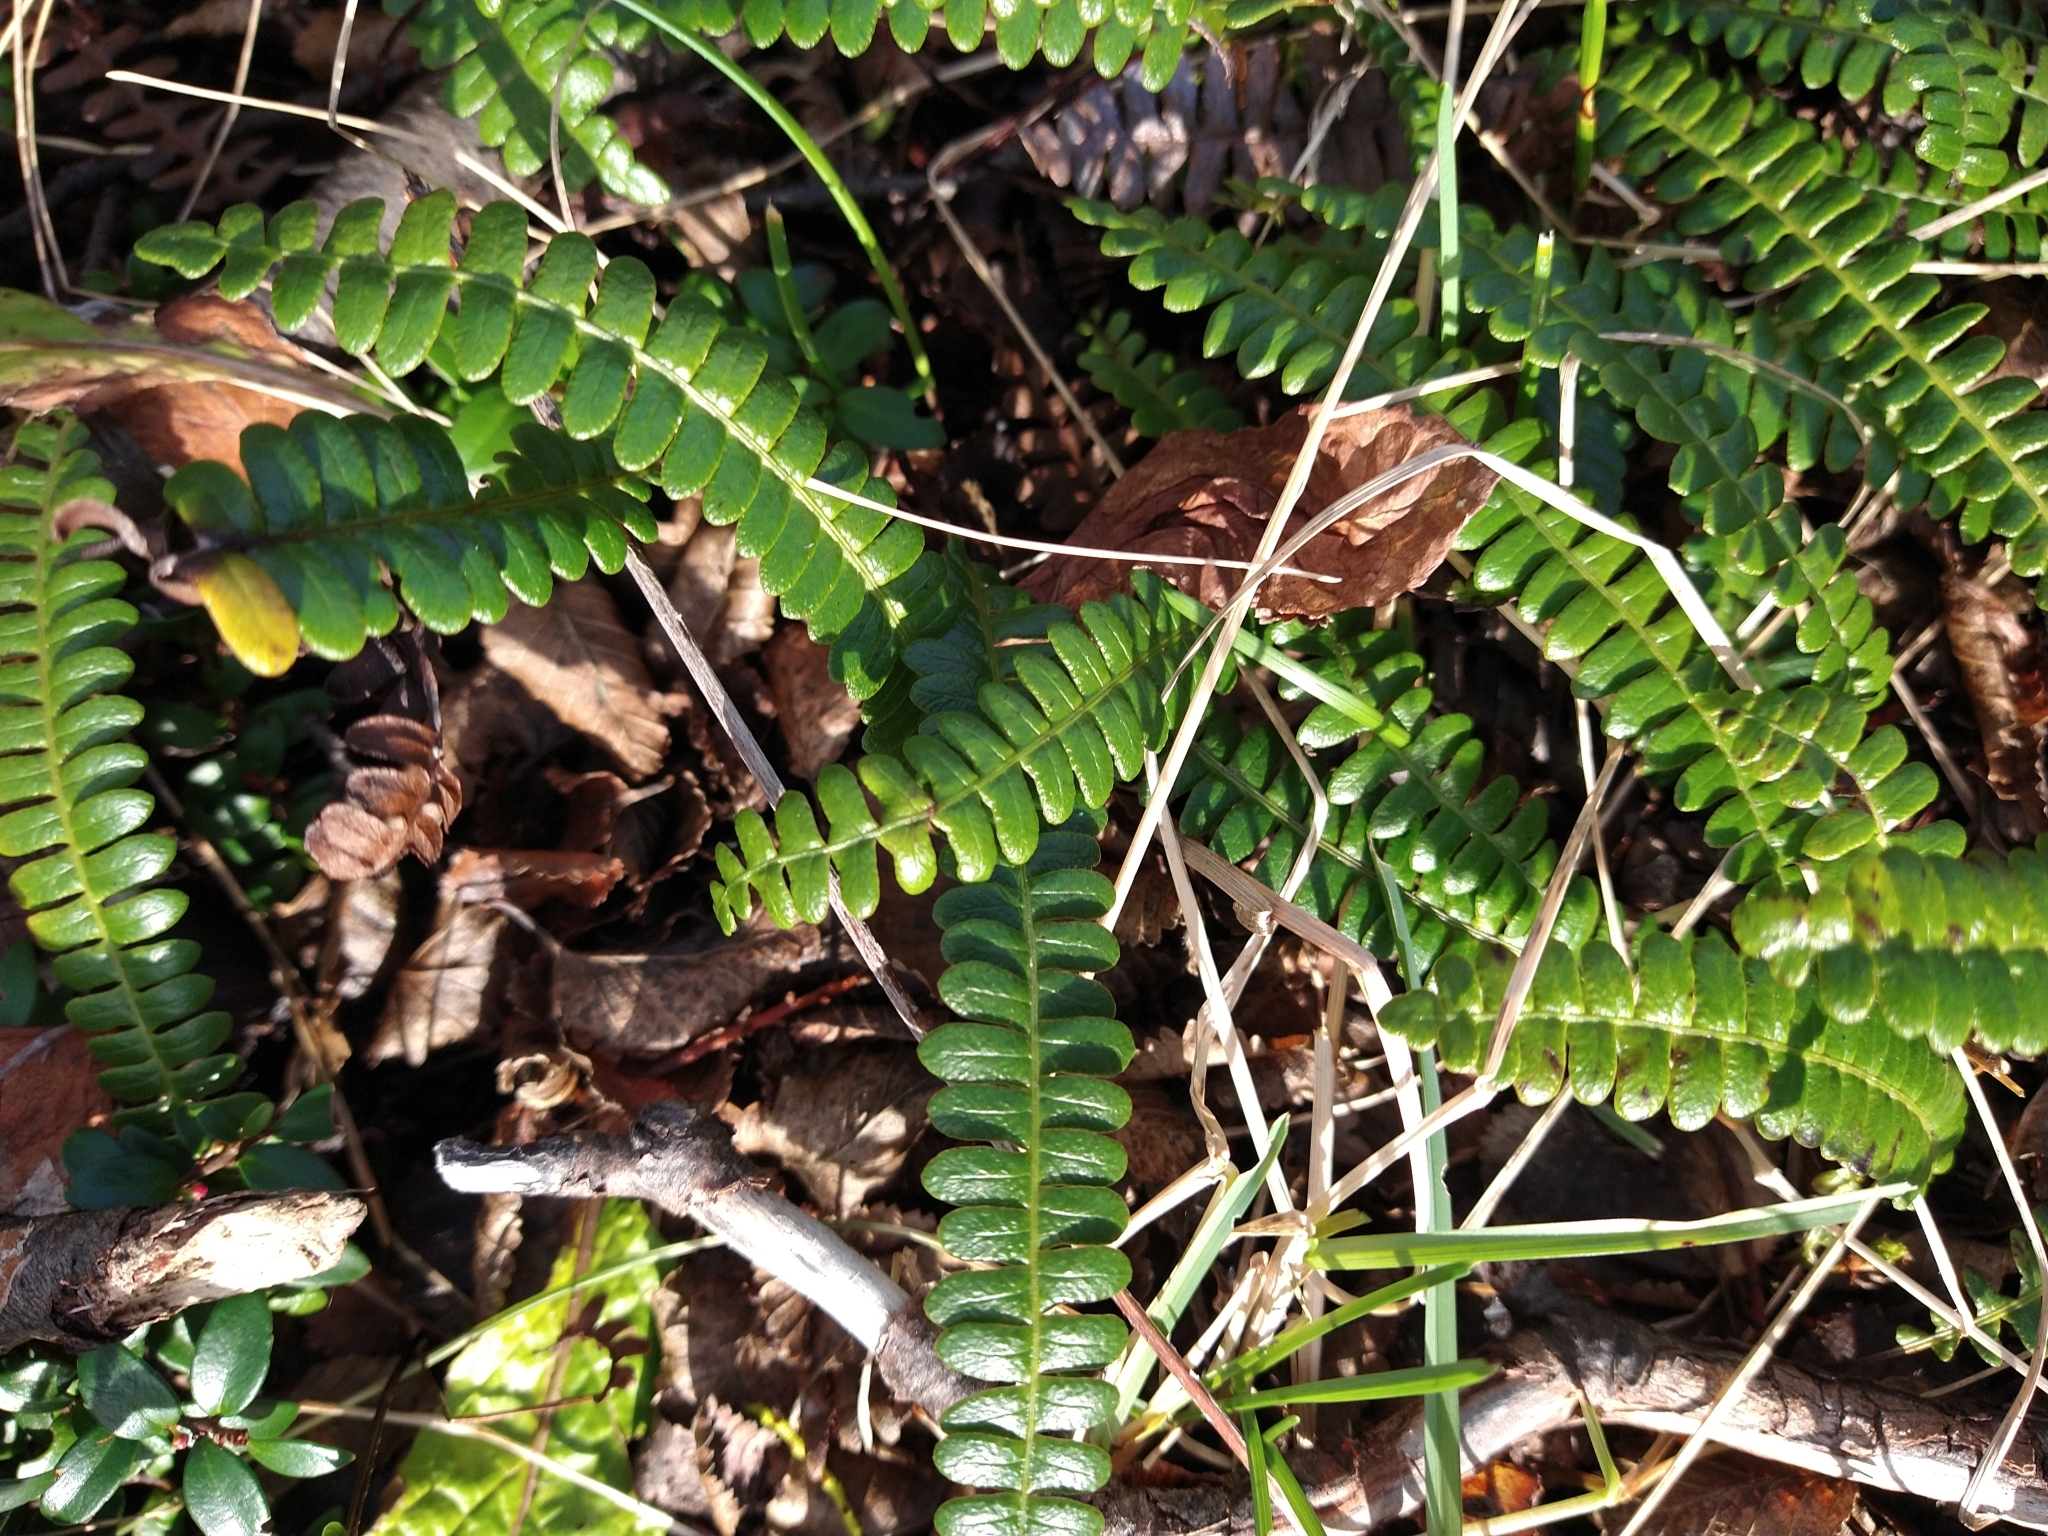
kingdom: Plantae
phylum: Tracheophyta
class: Polypodiopsida
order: Polypodiales
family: Blechnaceae
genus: Austroblechnum
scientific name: Austroblechnum penna-marina
